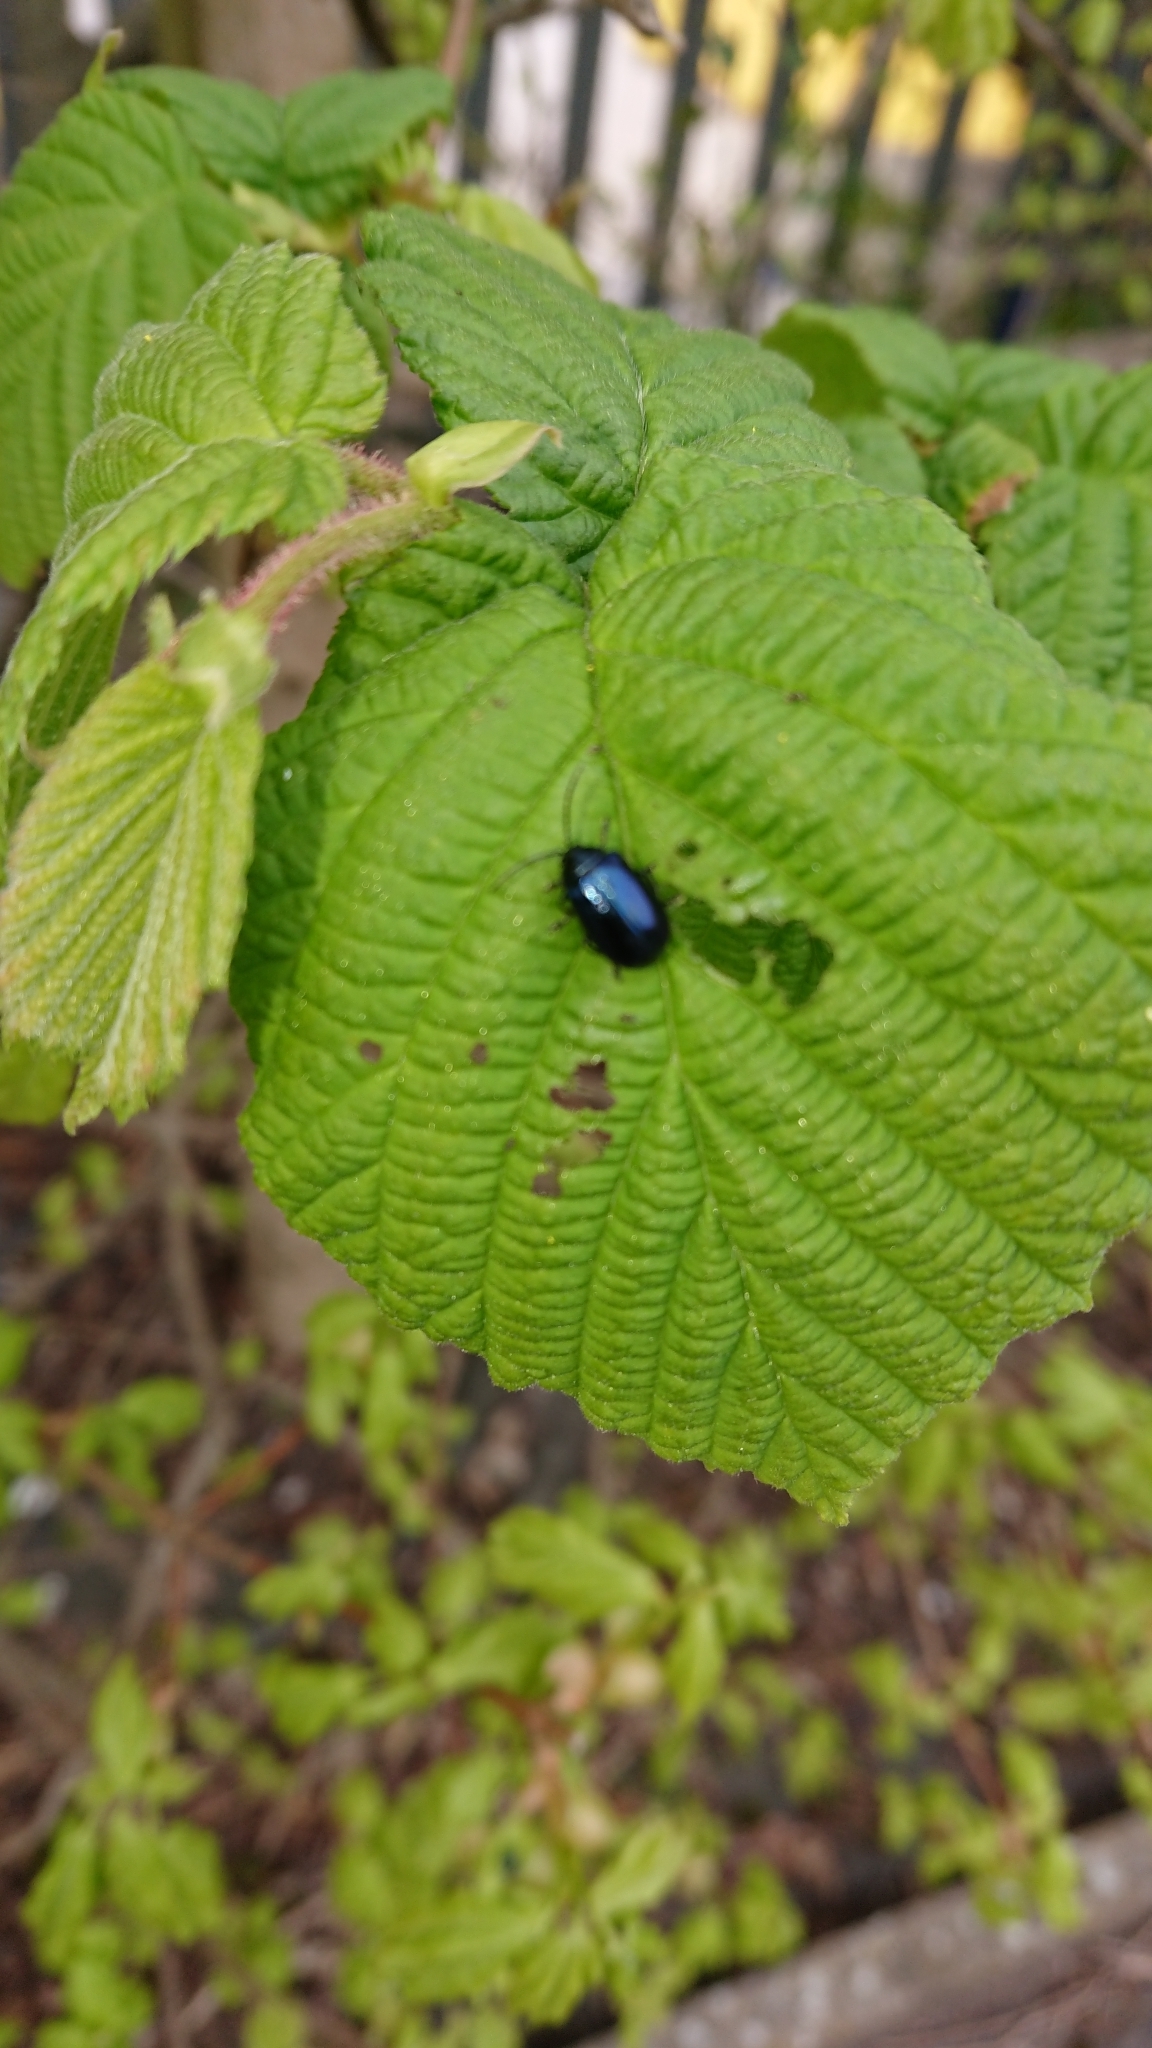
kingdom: Animalia
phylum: Arthropoda
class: Insecta
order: Coleoptera
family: Chrysomelidae
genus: Agelastica
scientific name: Agelastica alni
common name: Alder leaf beetle
